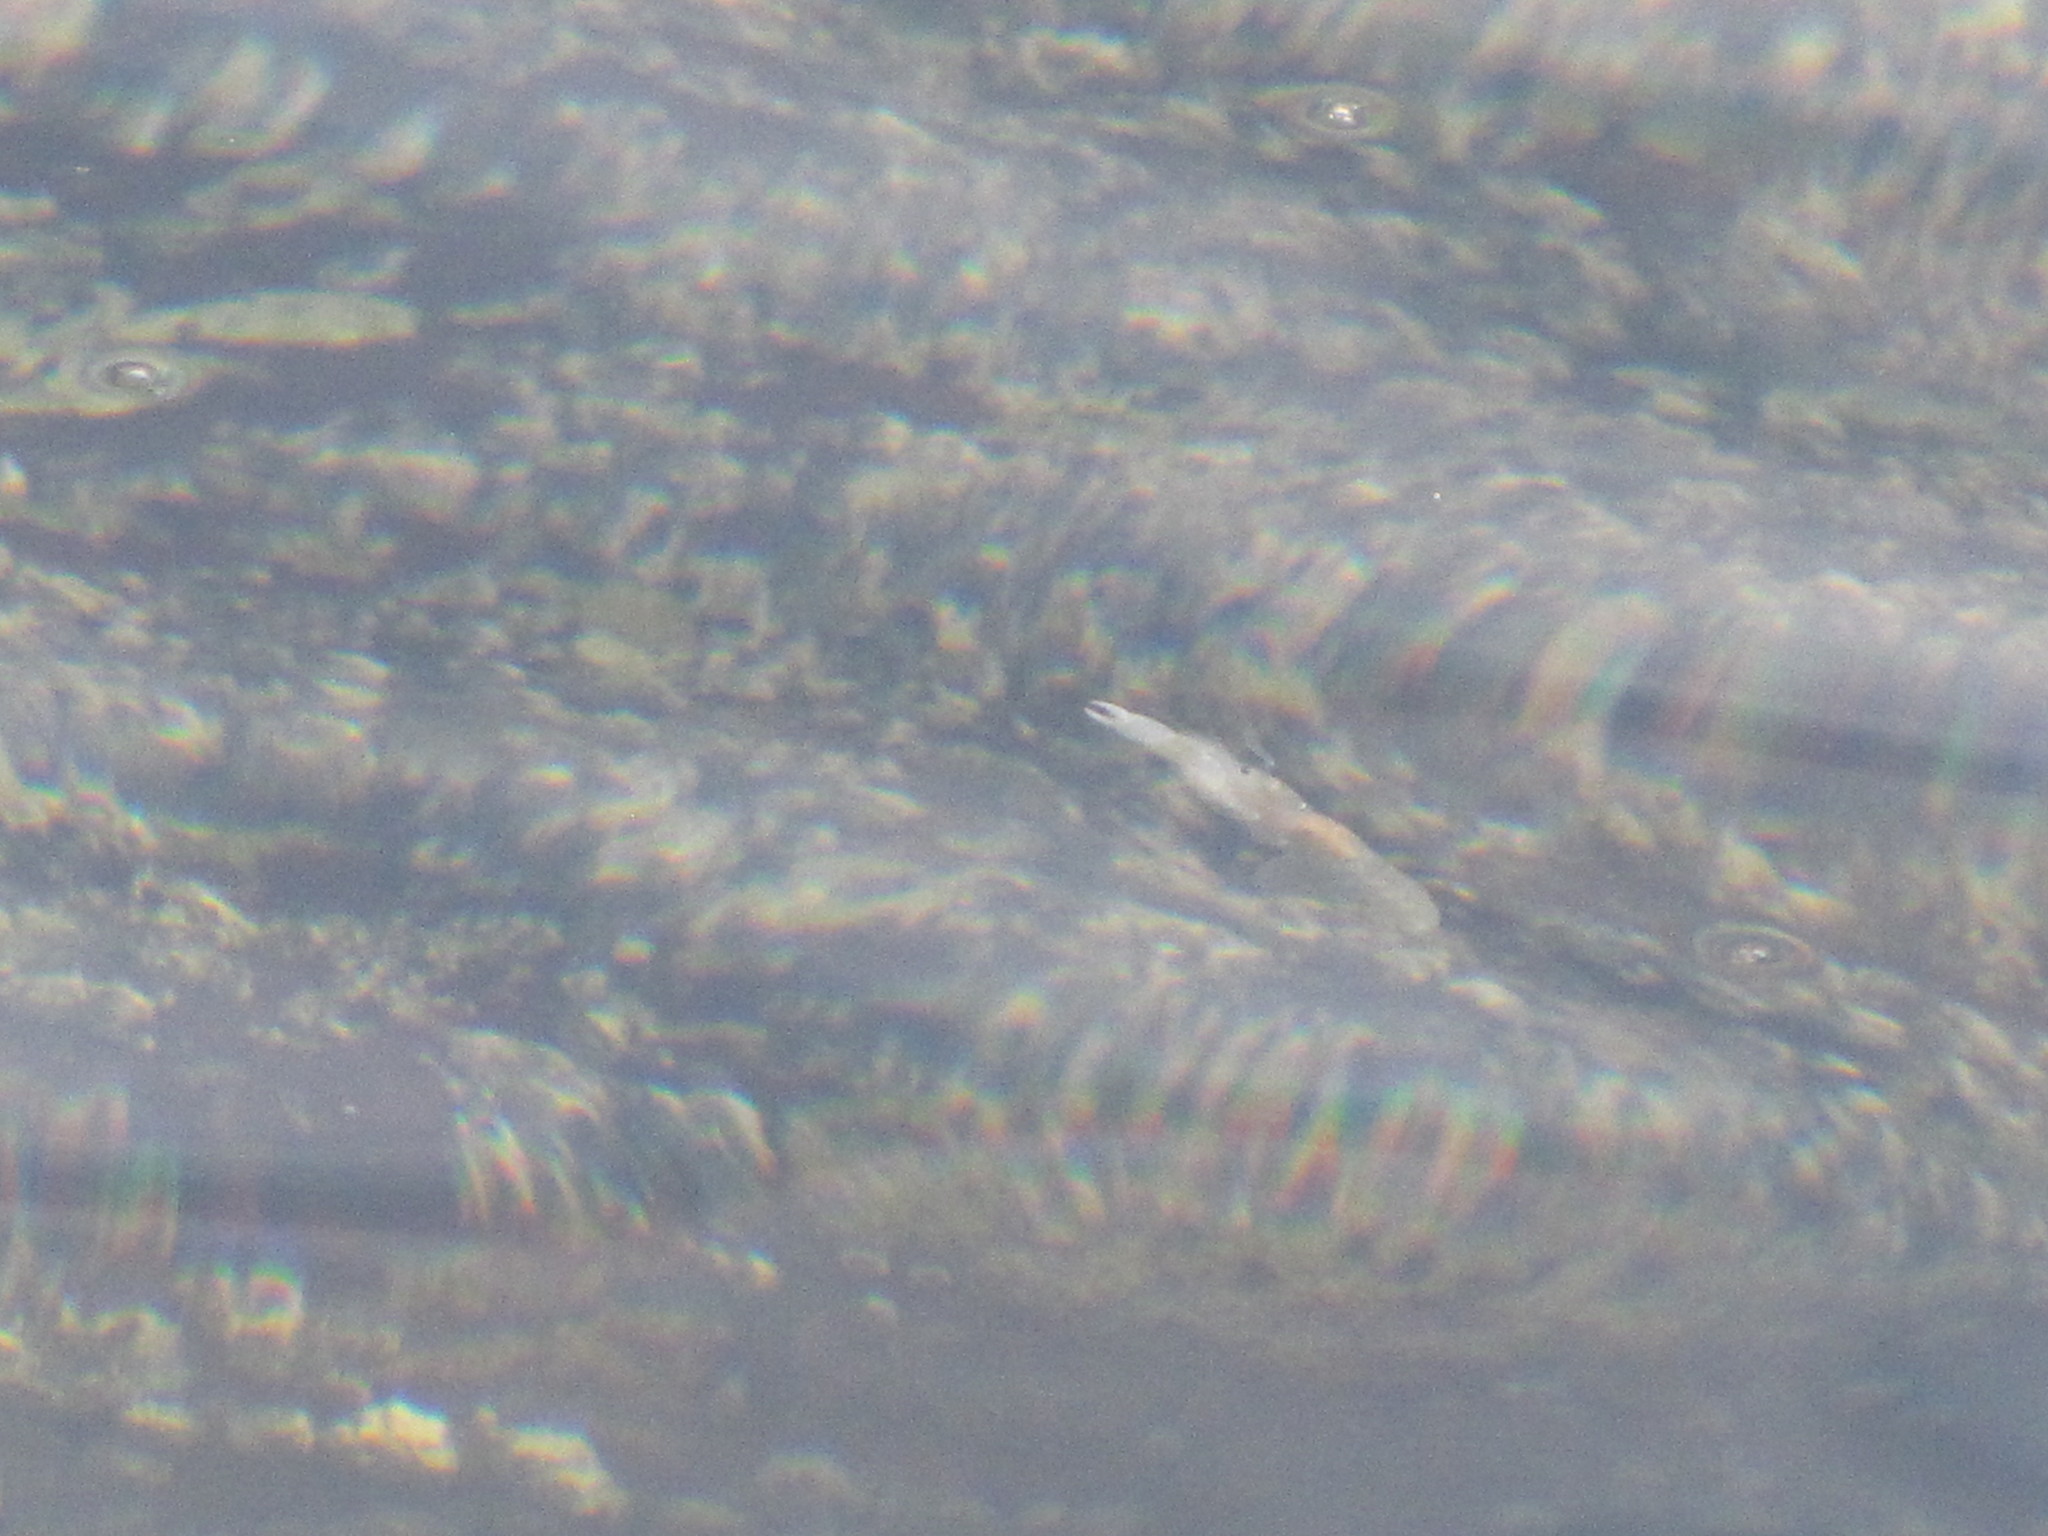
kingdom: Animalia
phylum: Mollusca
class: Cephalopoda
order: Myopsida
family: Loliginidae
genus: Doryteuthis
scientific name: Doryteuthis opalescens
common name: Opalescent inshore squid
